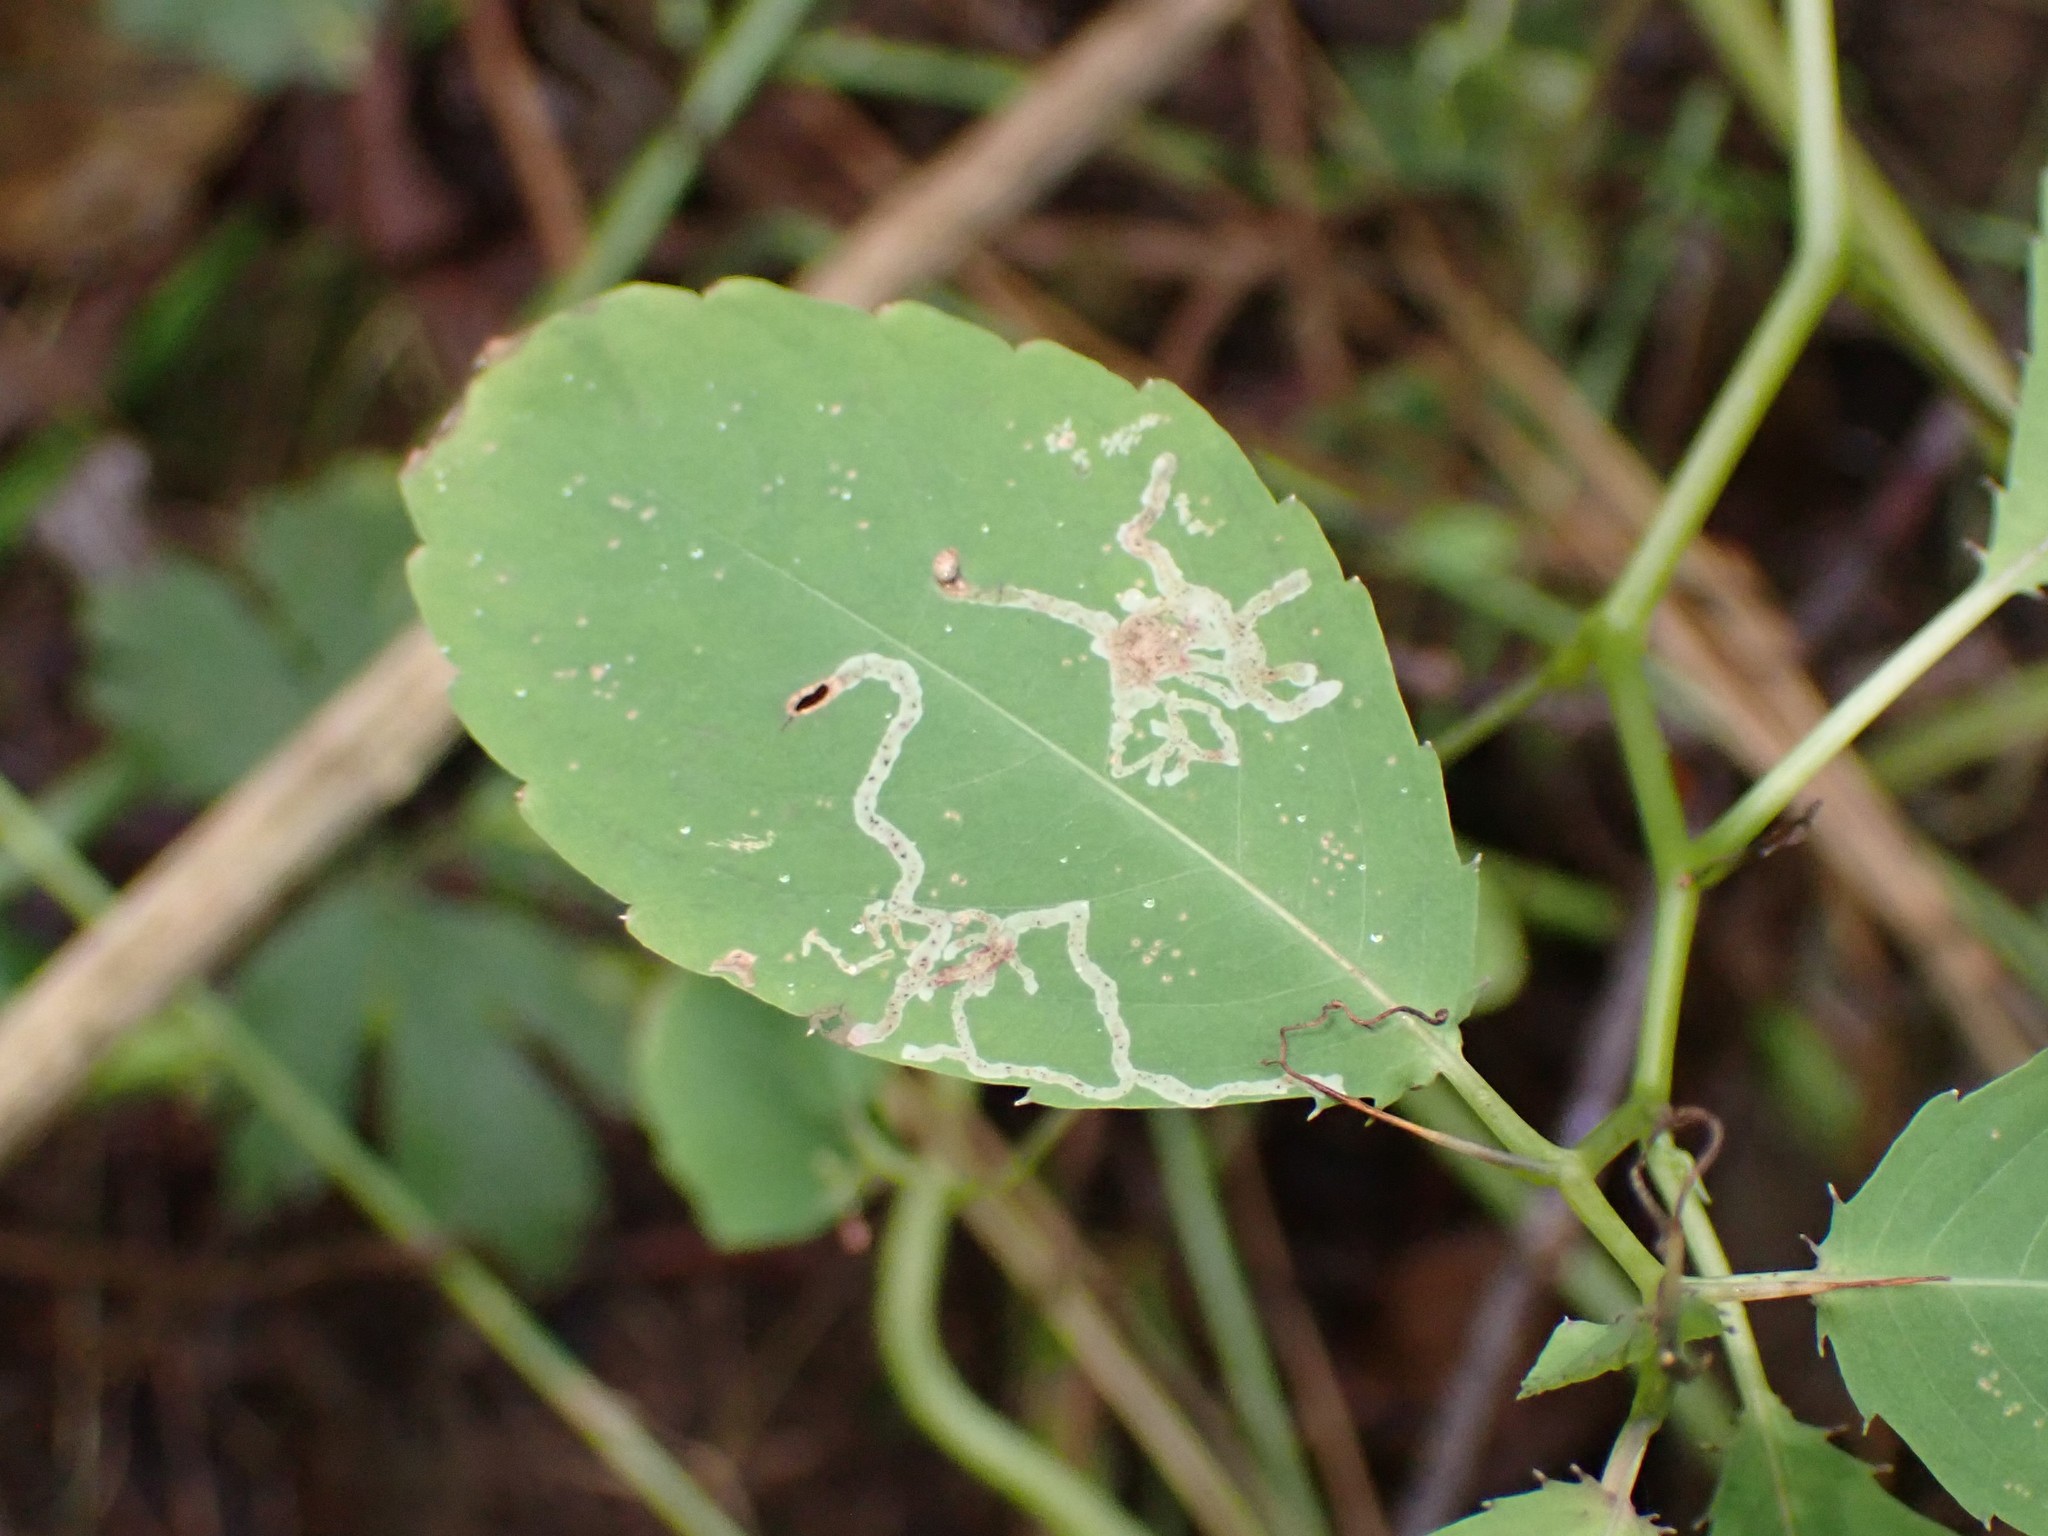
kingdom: Animalia
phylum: Arthropoda
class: Insecta
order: Diptera
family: Agromyzidae
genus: Phytoliriomyza
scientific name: Phytoliriomyza melampyga
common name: Jewelweed leaf-miner fly
